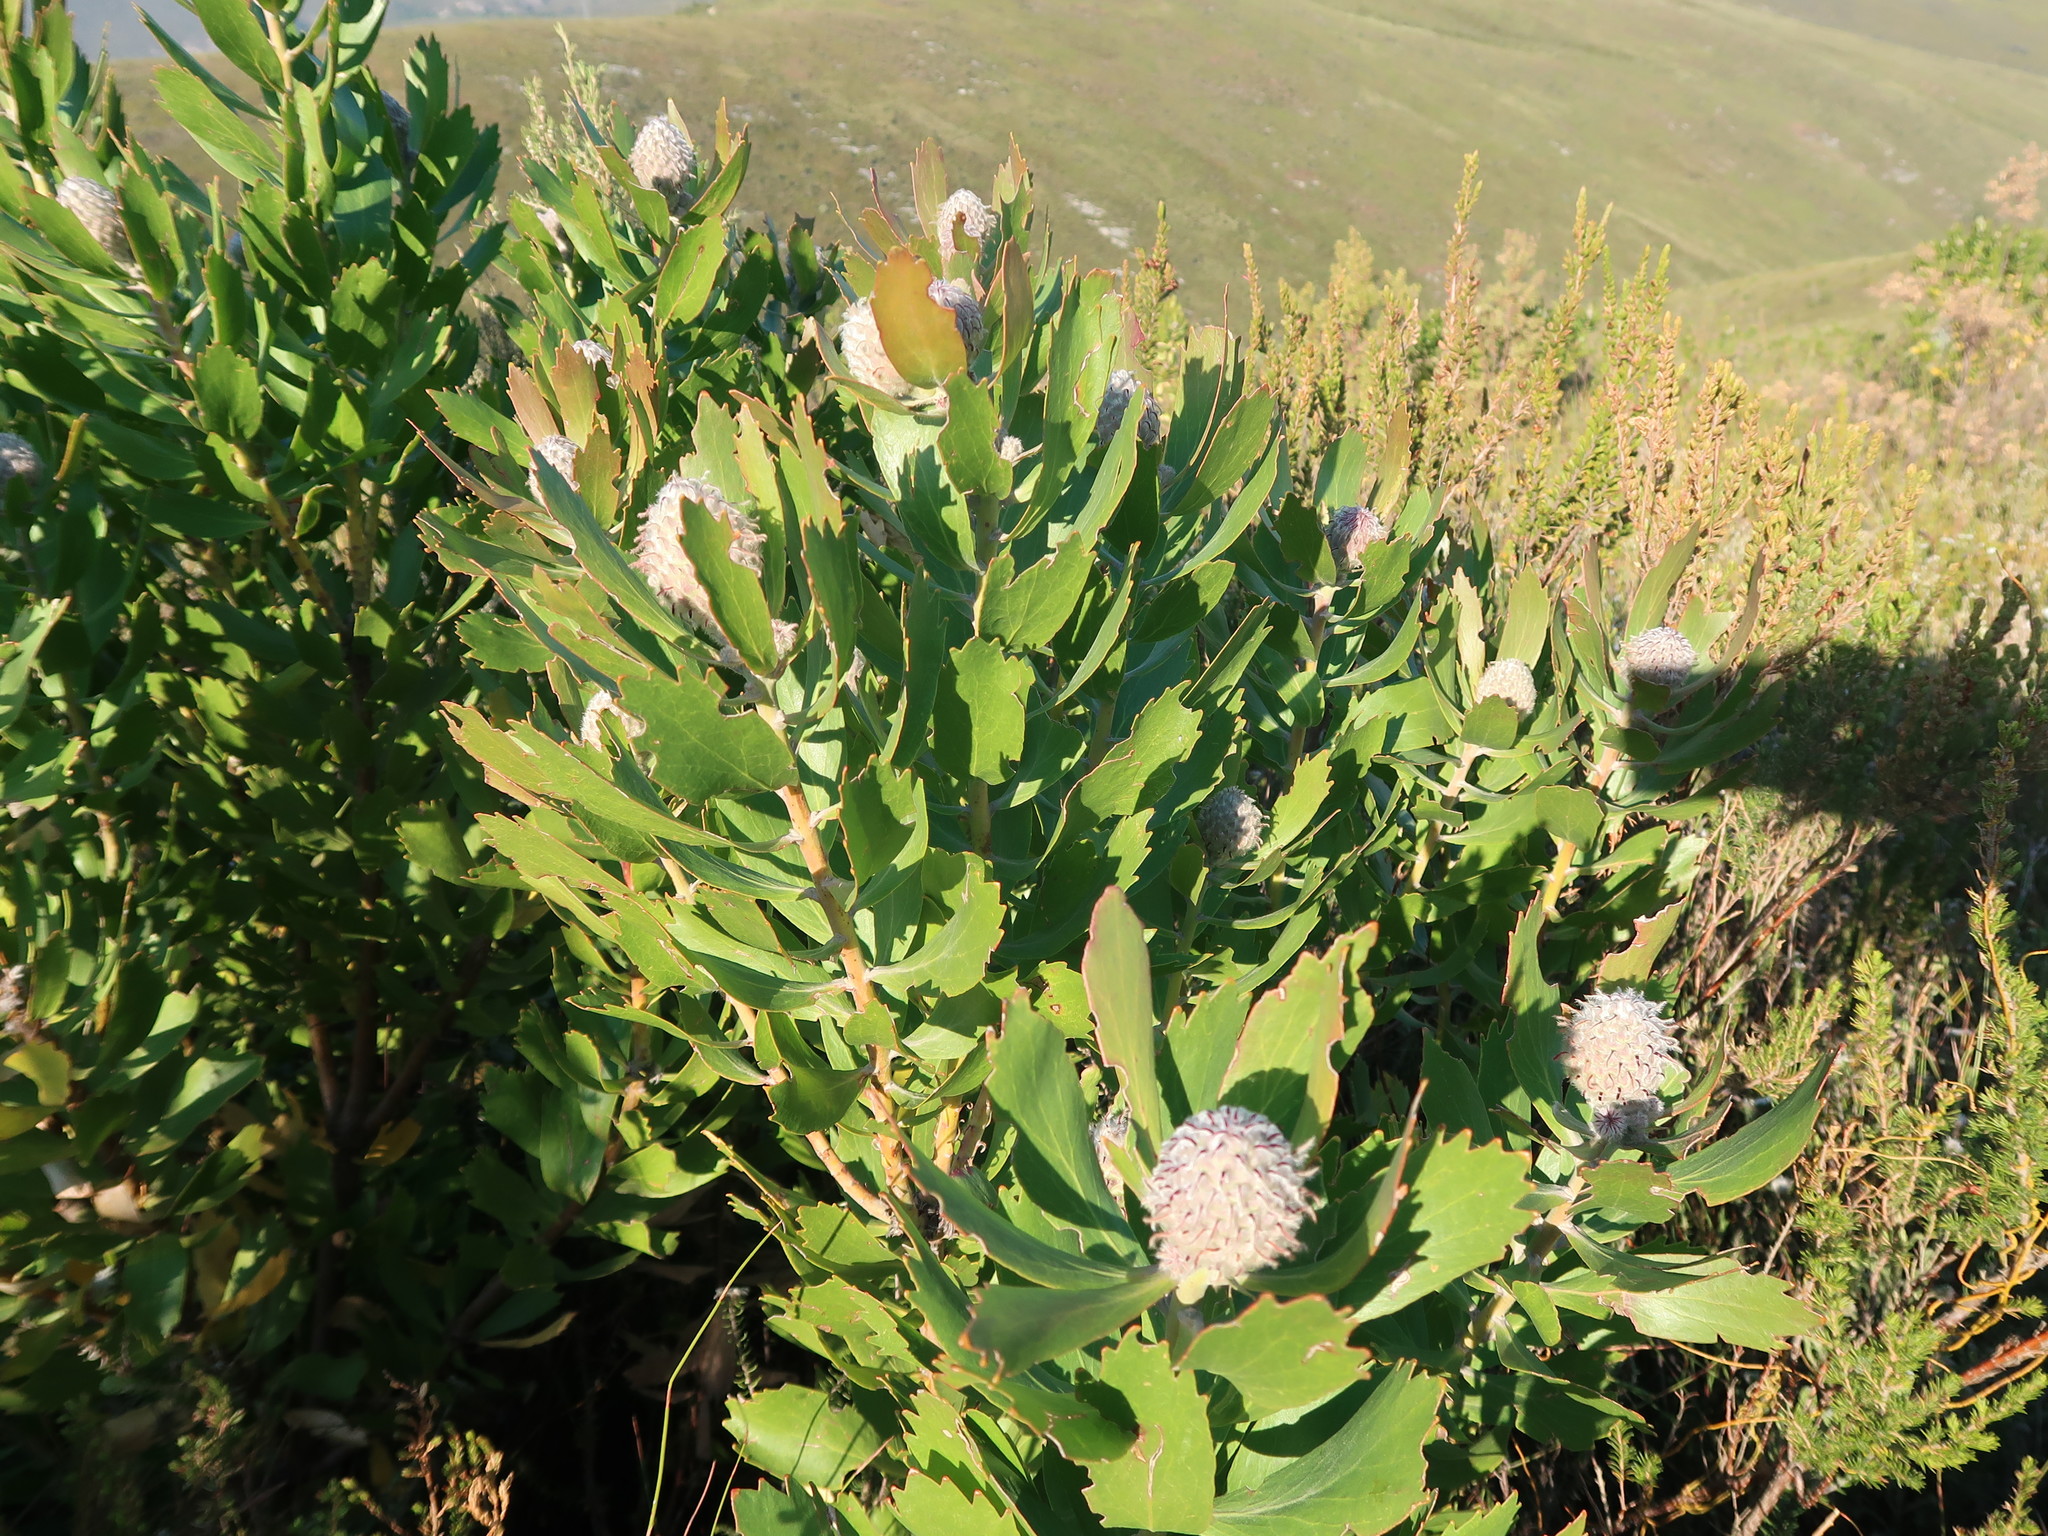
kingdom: Plantae
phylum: Tracheophyta
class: Magnoliopsida
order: Proteales
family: Proteaceae
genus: Leucospermum
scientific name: Leucospermum glabrum
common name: Outeniqua pincushion
